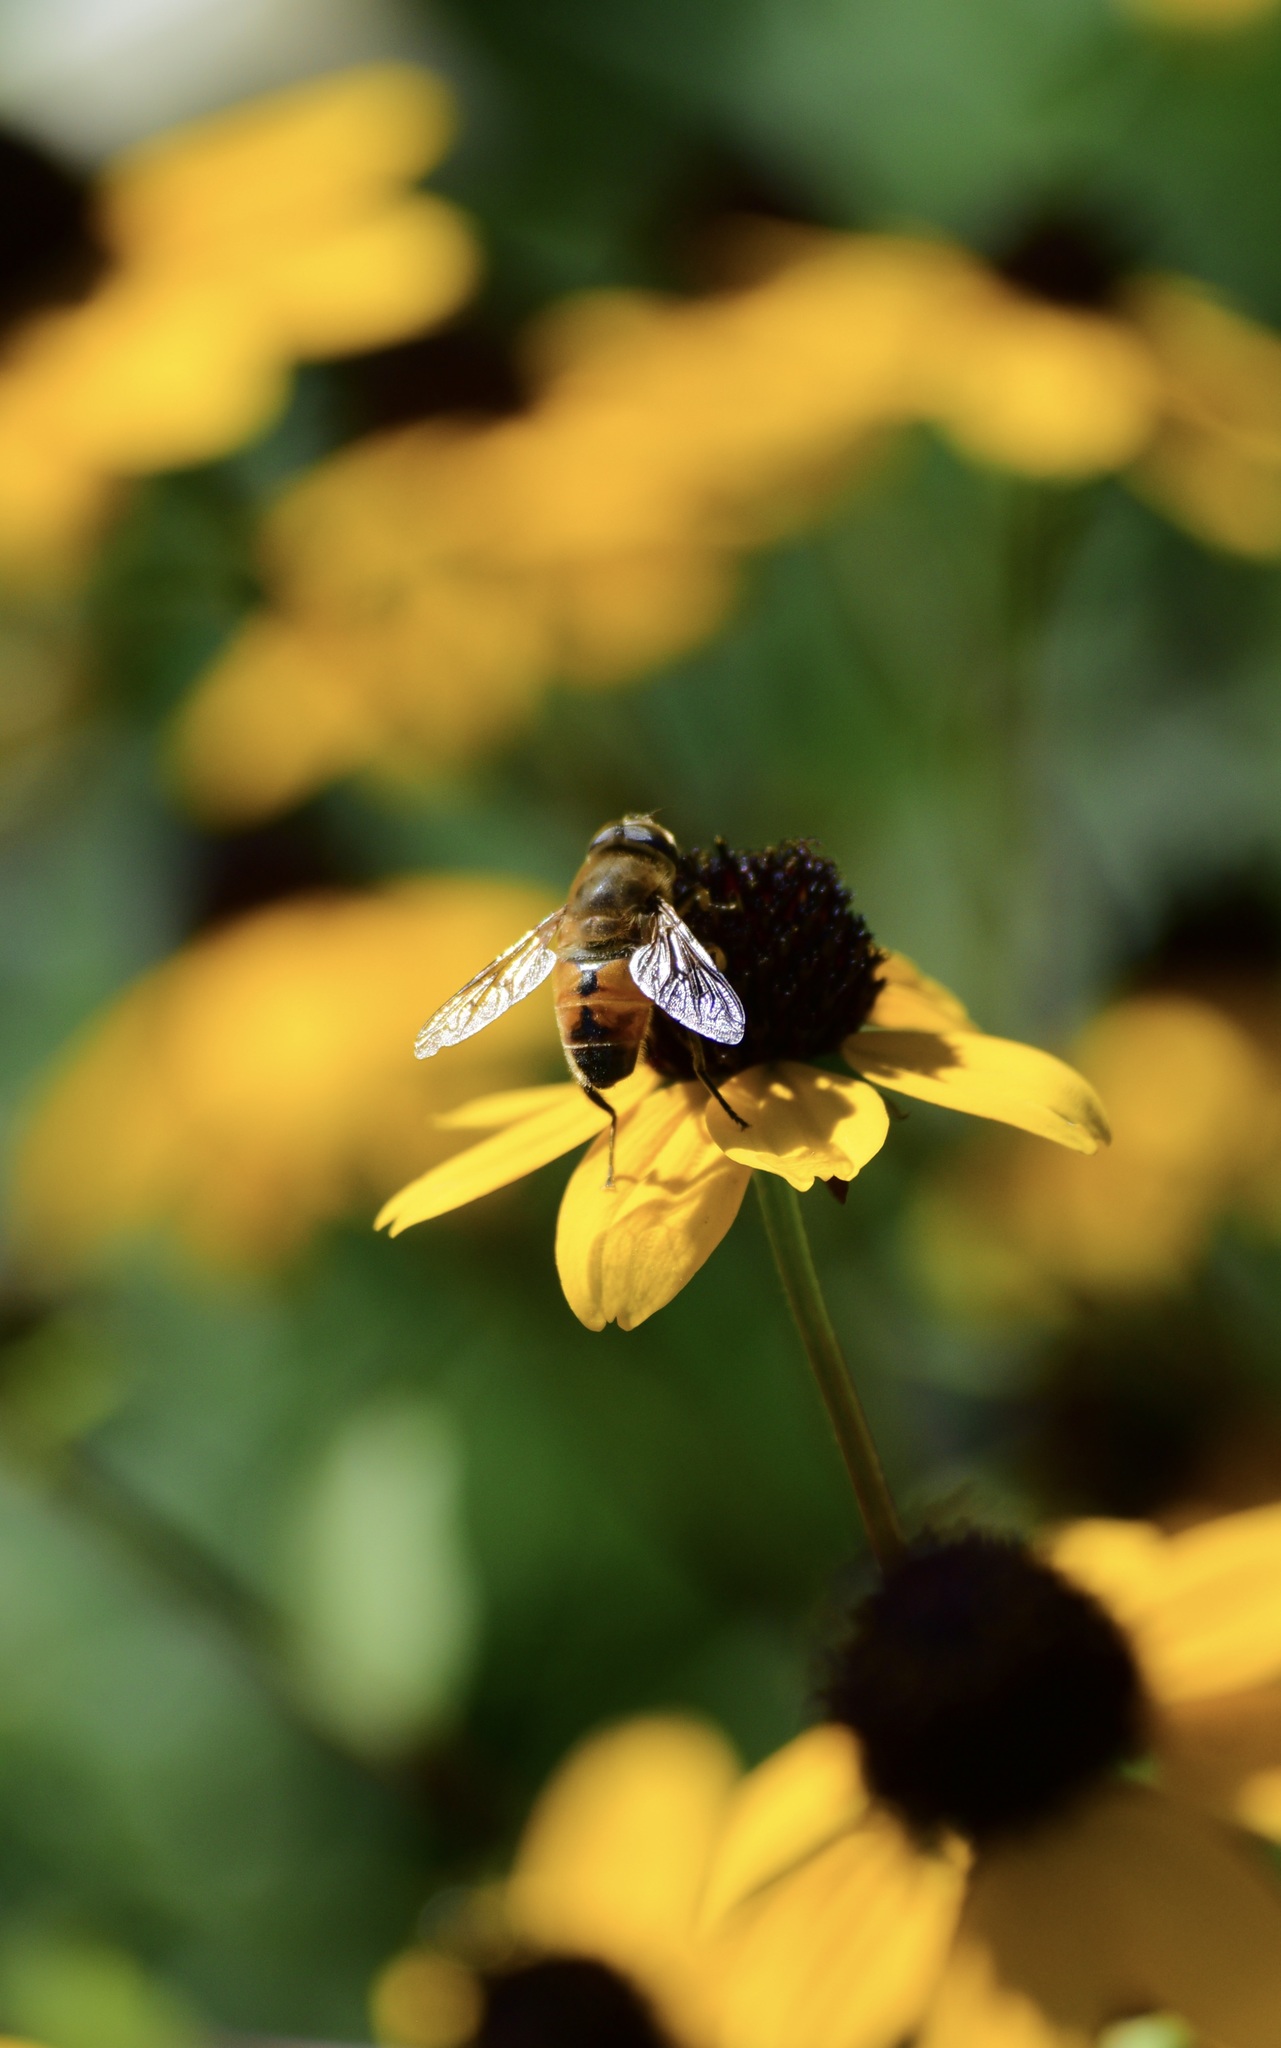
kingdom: Animalia
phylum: Arthropoda
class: Insecta
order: Diptera
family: Syrphidae
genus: Eristalis
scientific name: Eristalis tenax
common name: Drone fly
